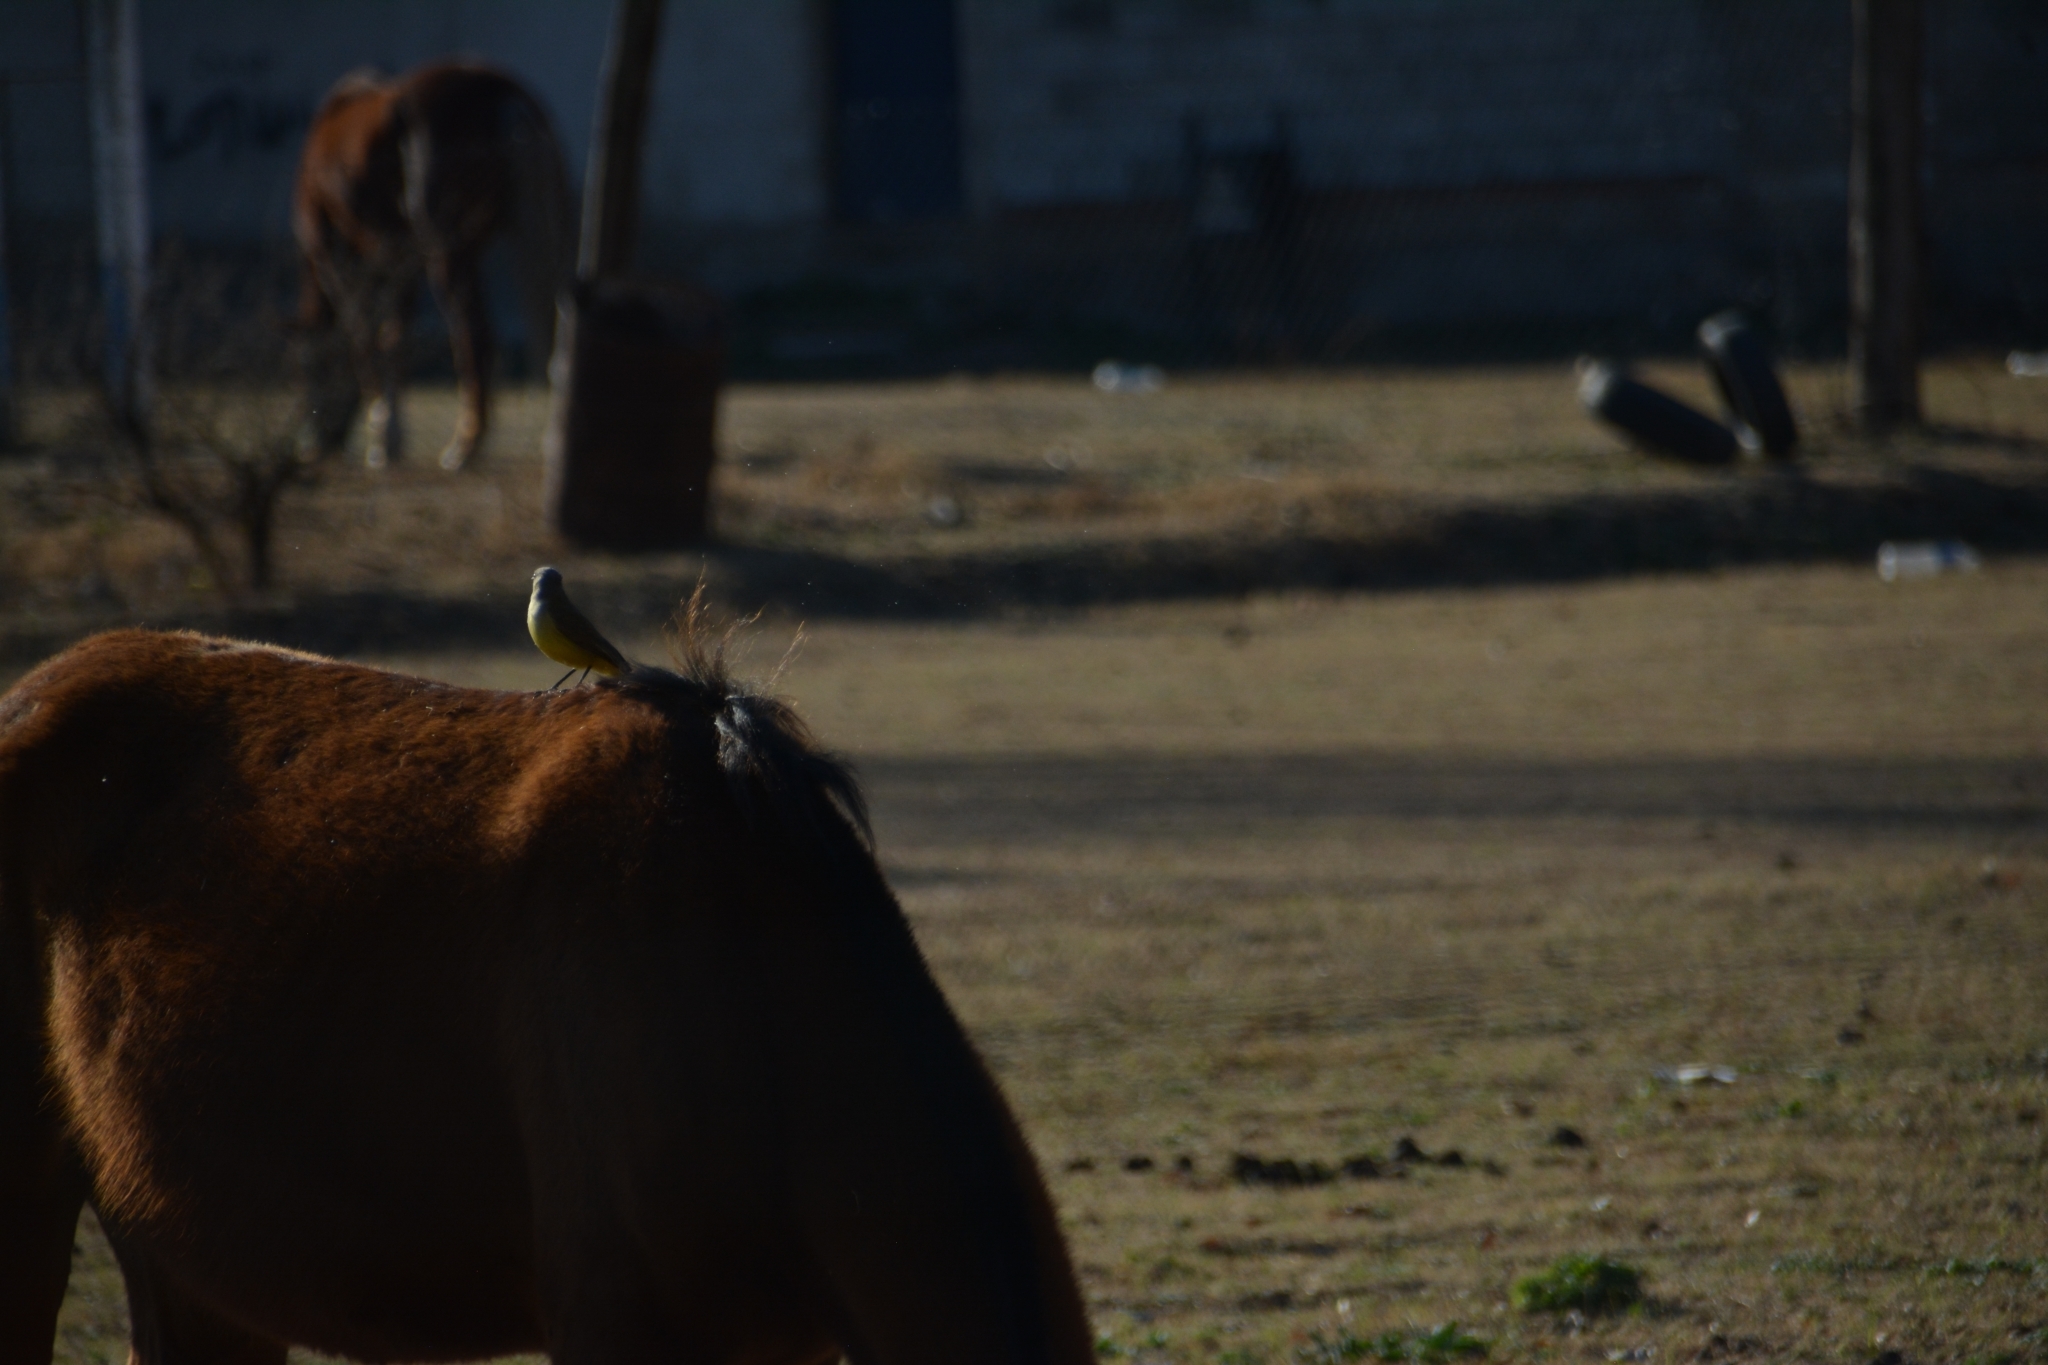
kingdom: Animalia
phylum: Chordata
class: Aves
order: Passeriformes
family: Tyrannidae
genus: Machetornis
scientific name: Machetornis rixosa
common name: Cattle tyrant
